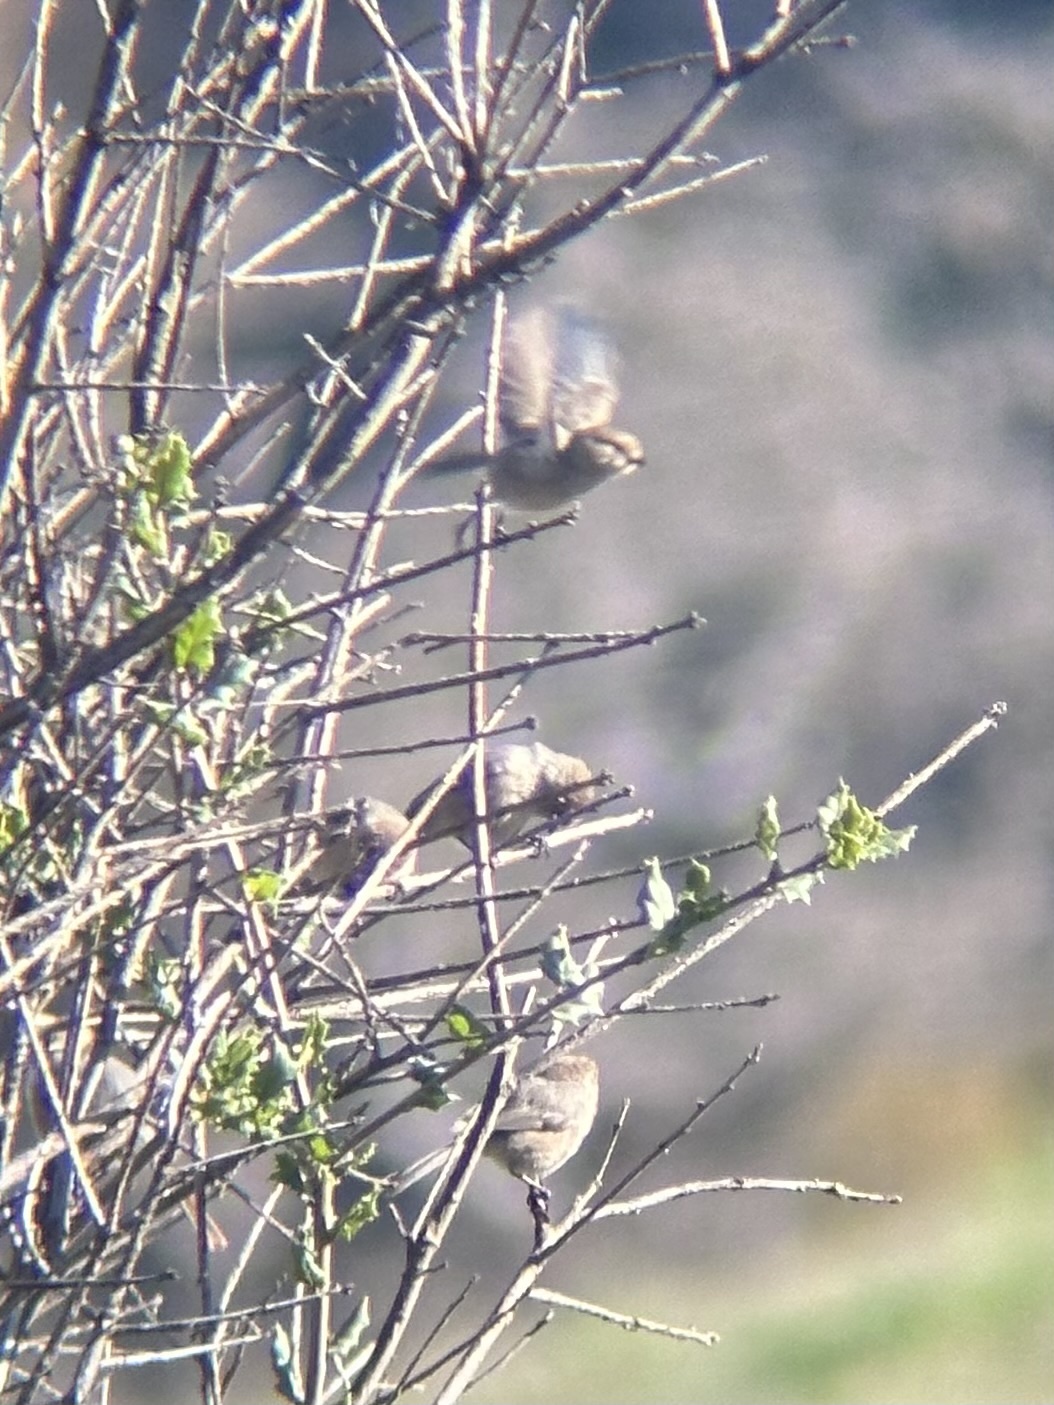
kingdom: Animalia
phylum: Chordata
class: Aves
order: Passeriformes
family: Aegithalidae
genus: Psaltriparus
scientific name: Psaltriparus minimus
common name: American bushtit
